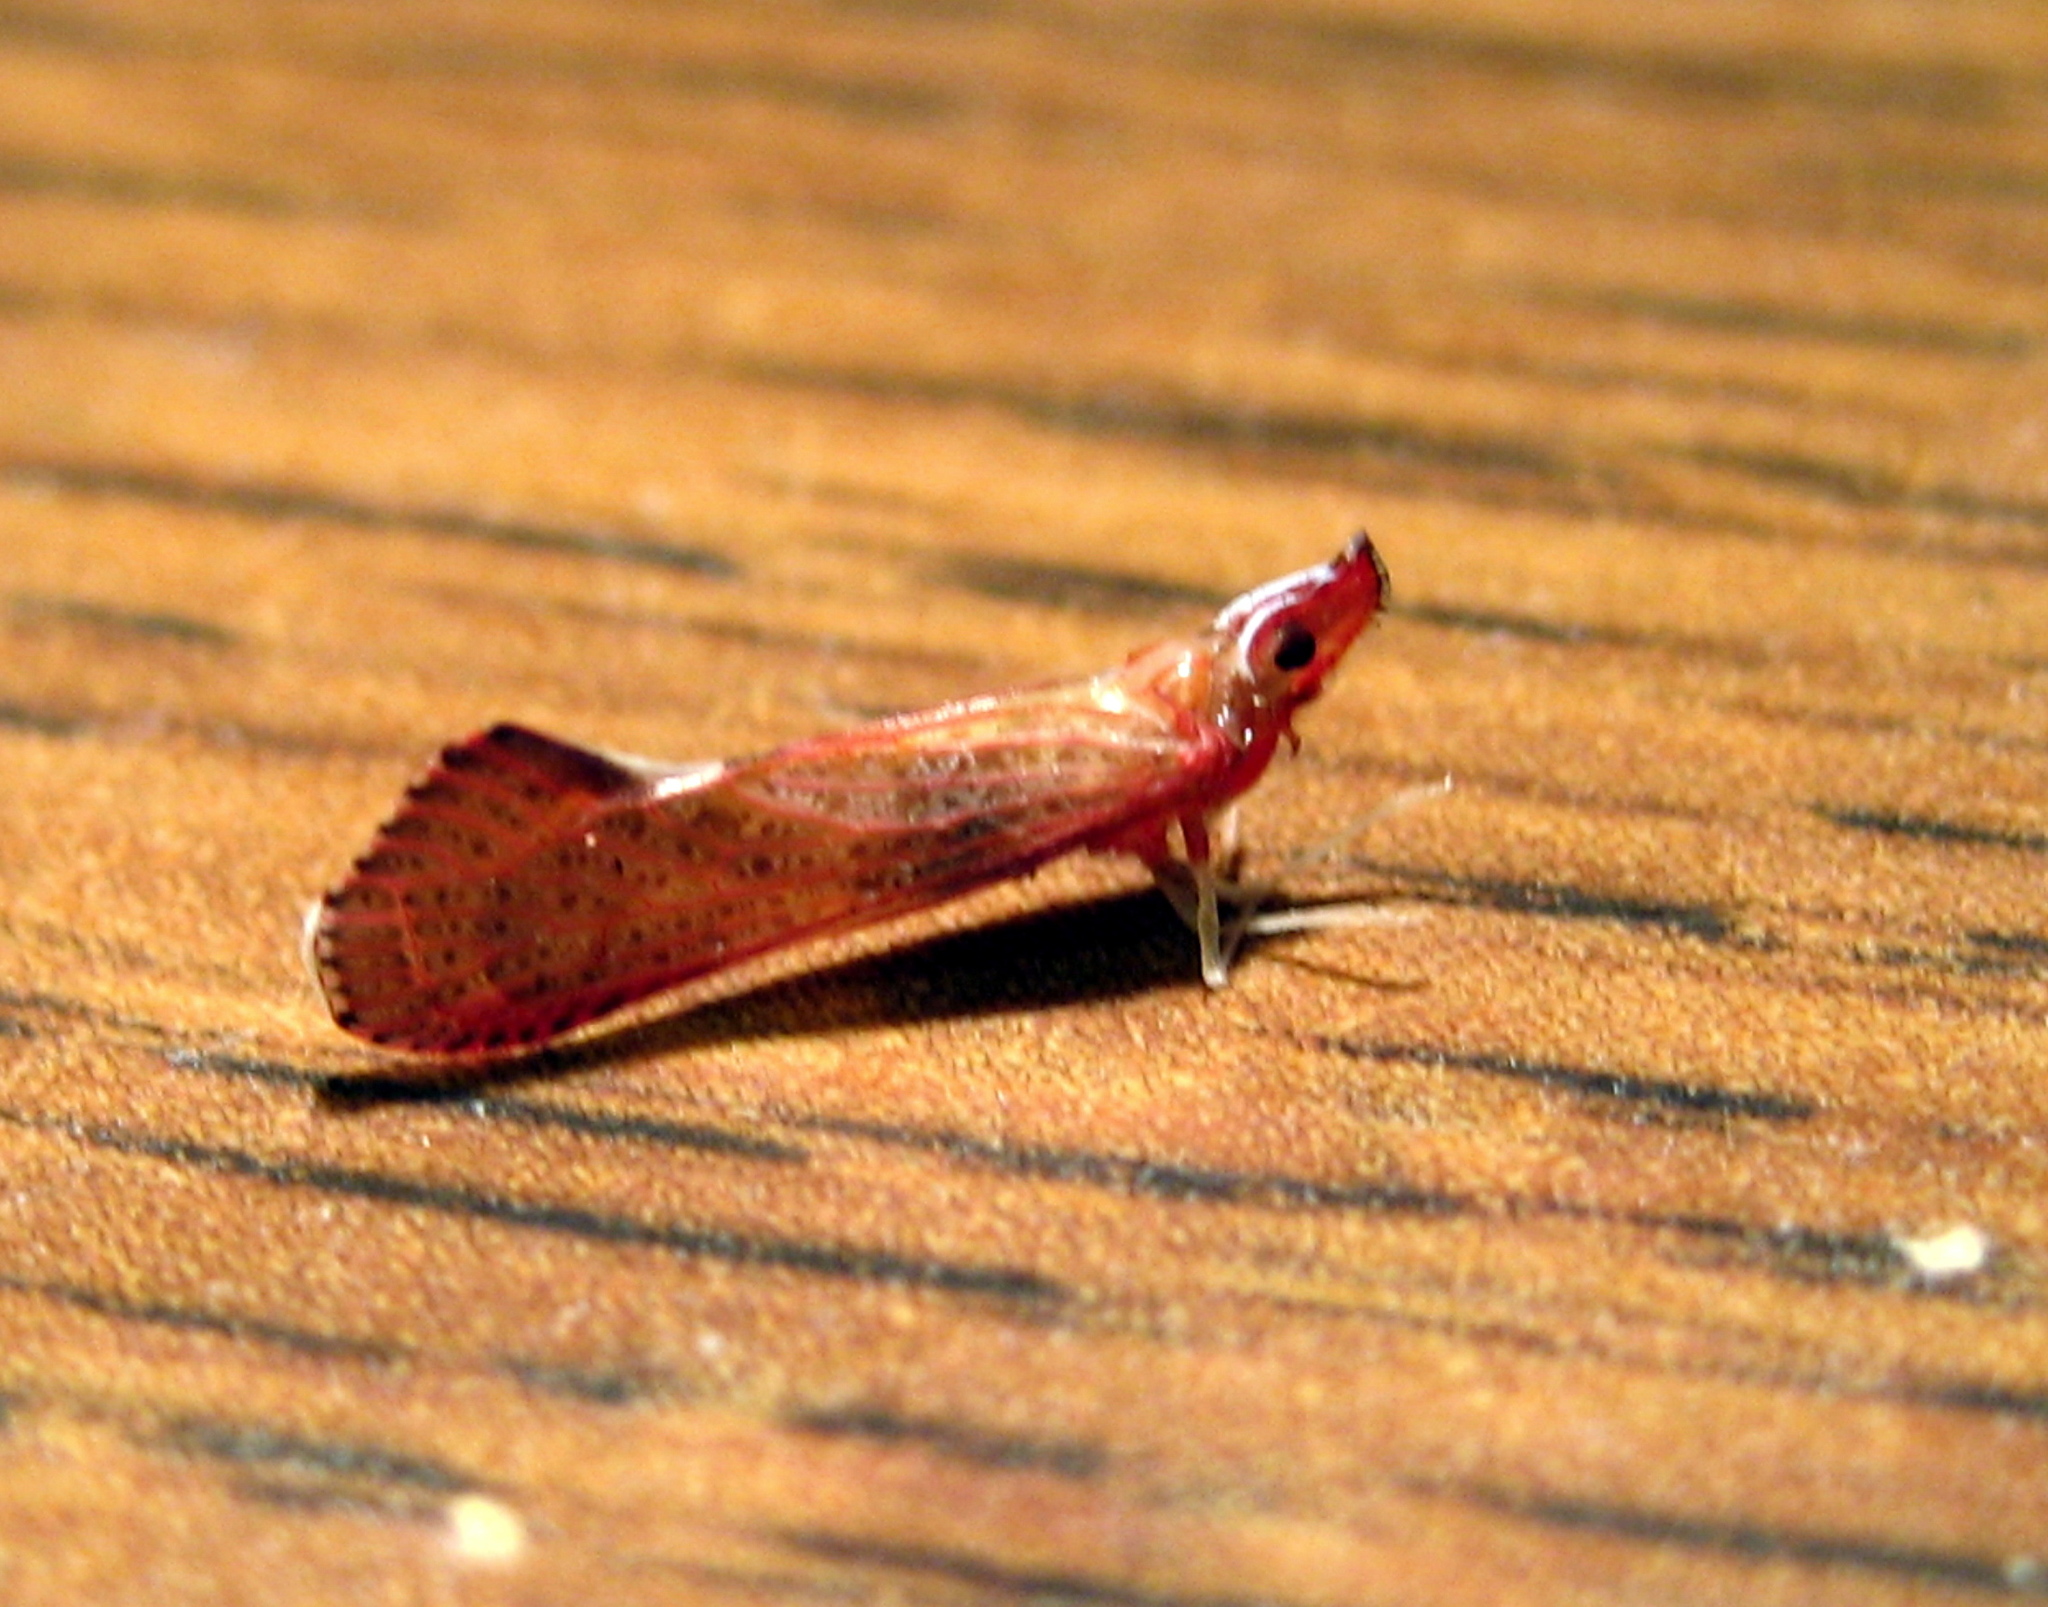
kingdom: Animalia
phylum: Arthropoda
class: Insecta
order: Hemiptera
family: Derbidae
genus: Apache
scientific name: Apache degeeri
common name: Red-fanned planthopper
